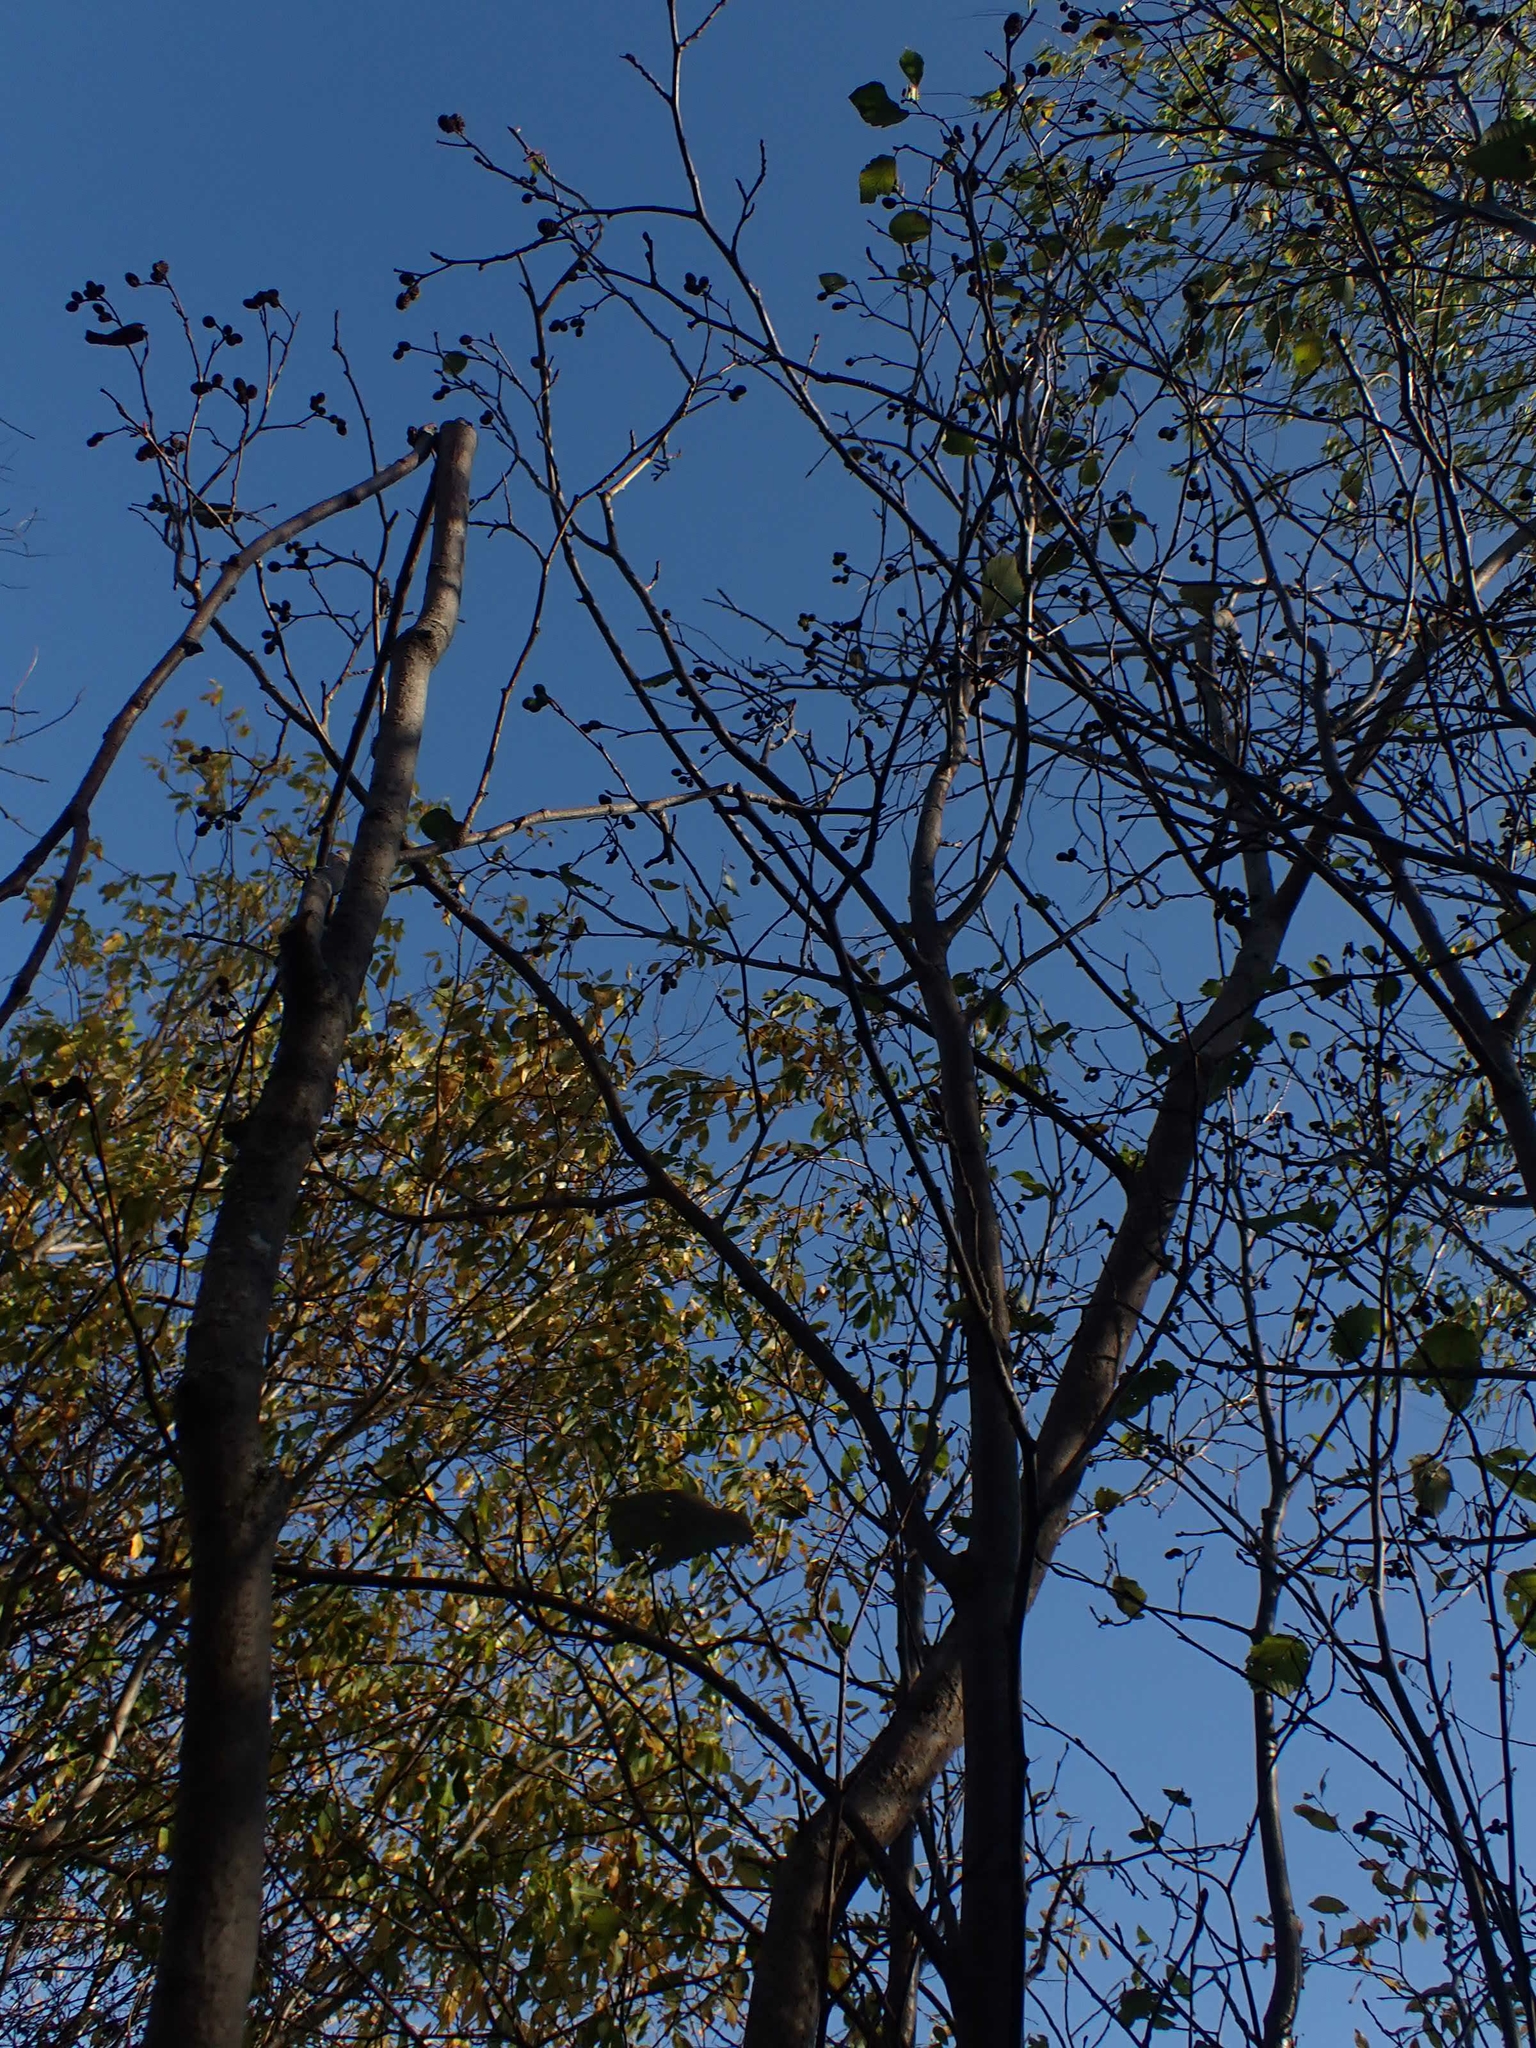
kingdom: Plantae
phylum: Tracheophyta
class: Magnoliopsida
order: Fagales
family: Betulaceae
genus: Alnus
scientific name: Alnus incana
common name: Grey alder
